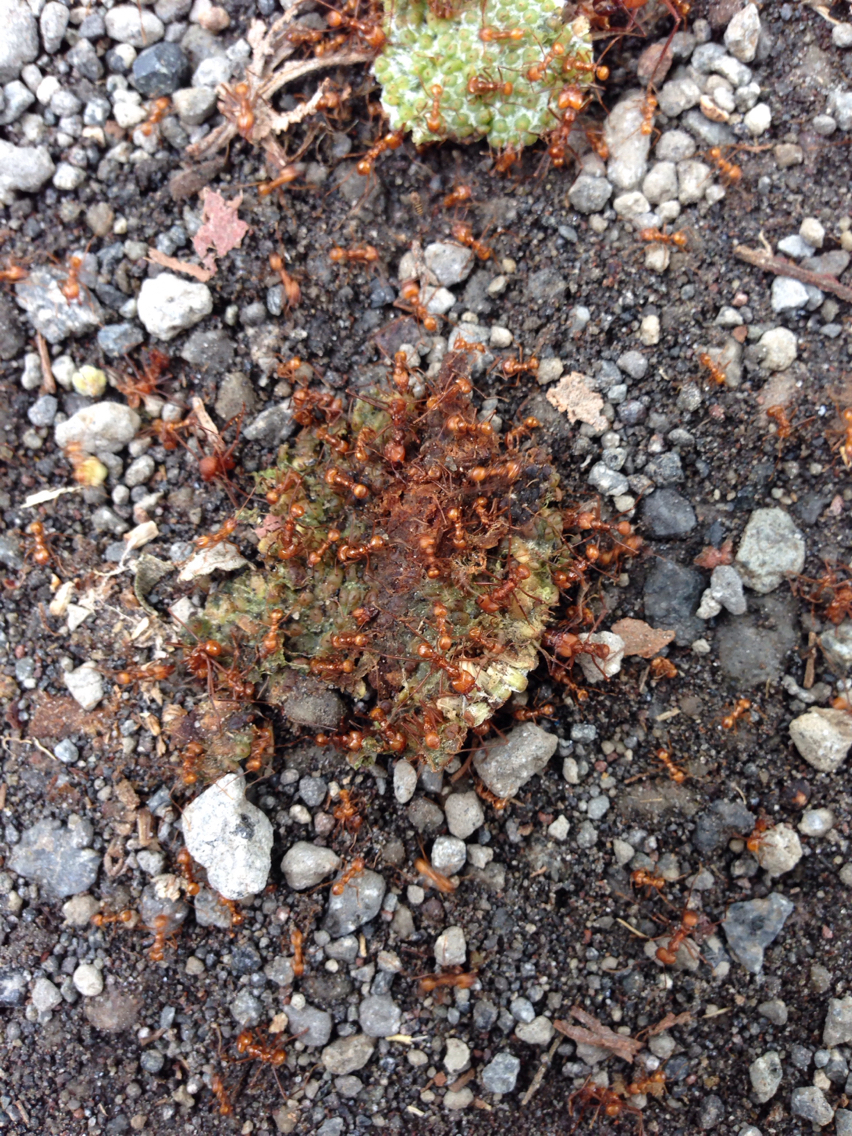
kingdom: Animalia
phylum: Arthropoda
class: Insecta
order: Hymenoptera
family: Formicidae
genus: Atta
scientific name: Atta cephalotes
